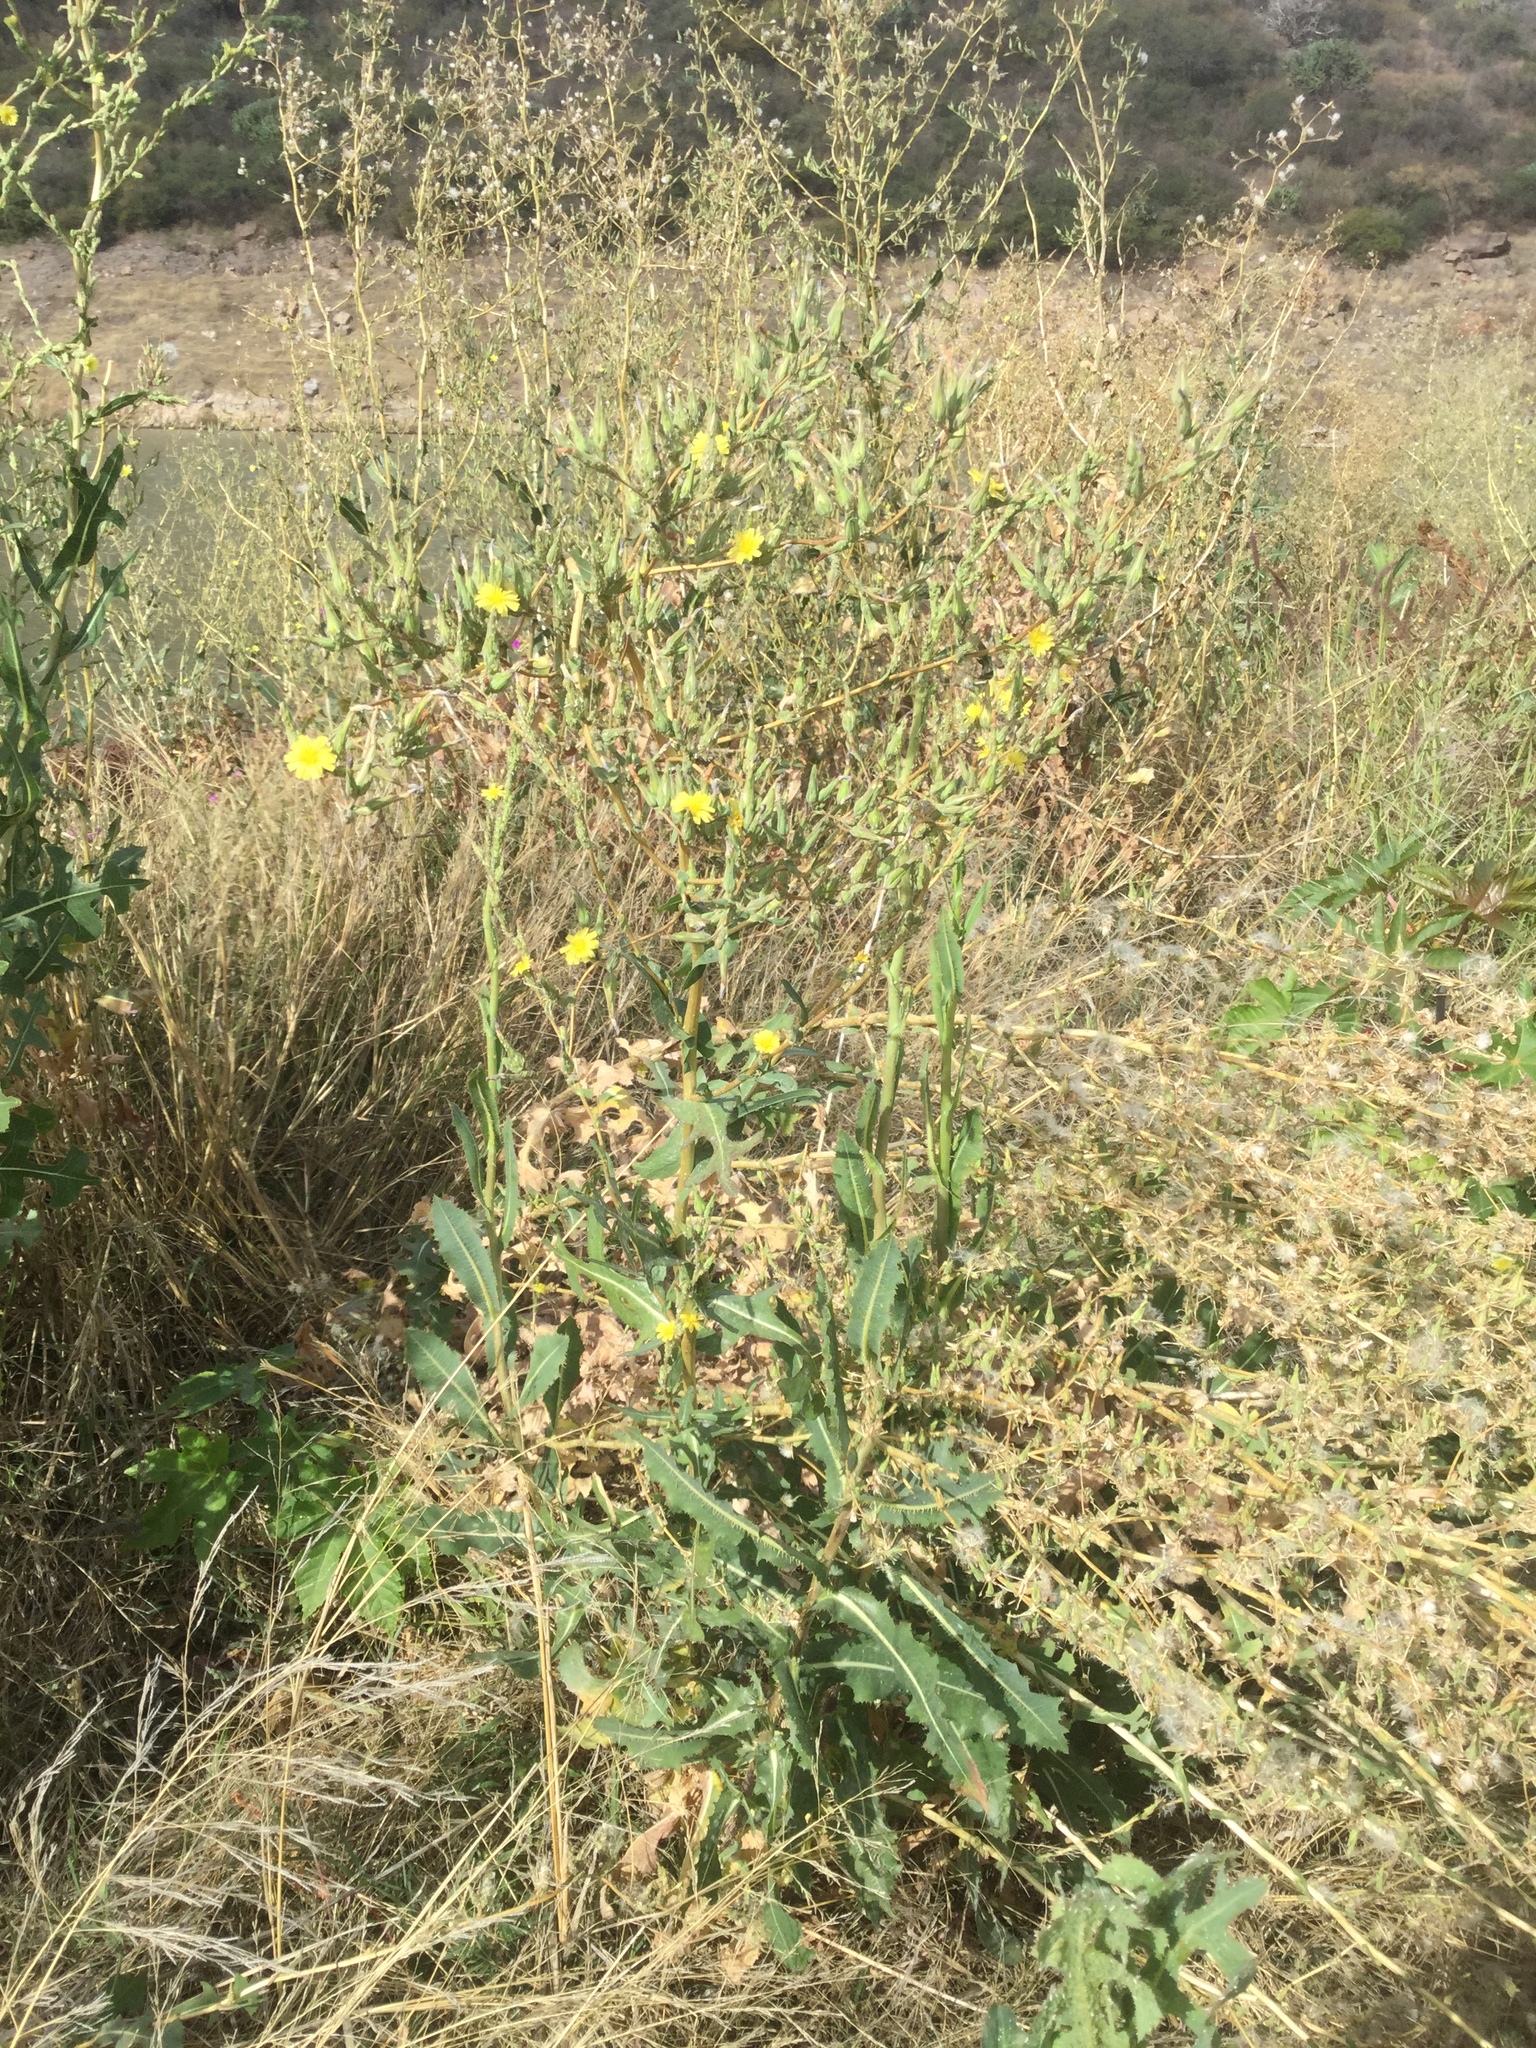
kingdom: Plantae
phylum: Tracheophyta
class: Magnoliopsida
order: Asterales
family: Asteraceae
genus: Lactuca
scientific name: Lactuca serriola
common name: Prickly lettuce
